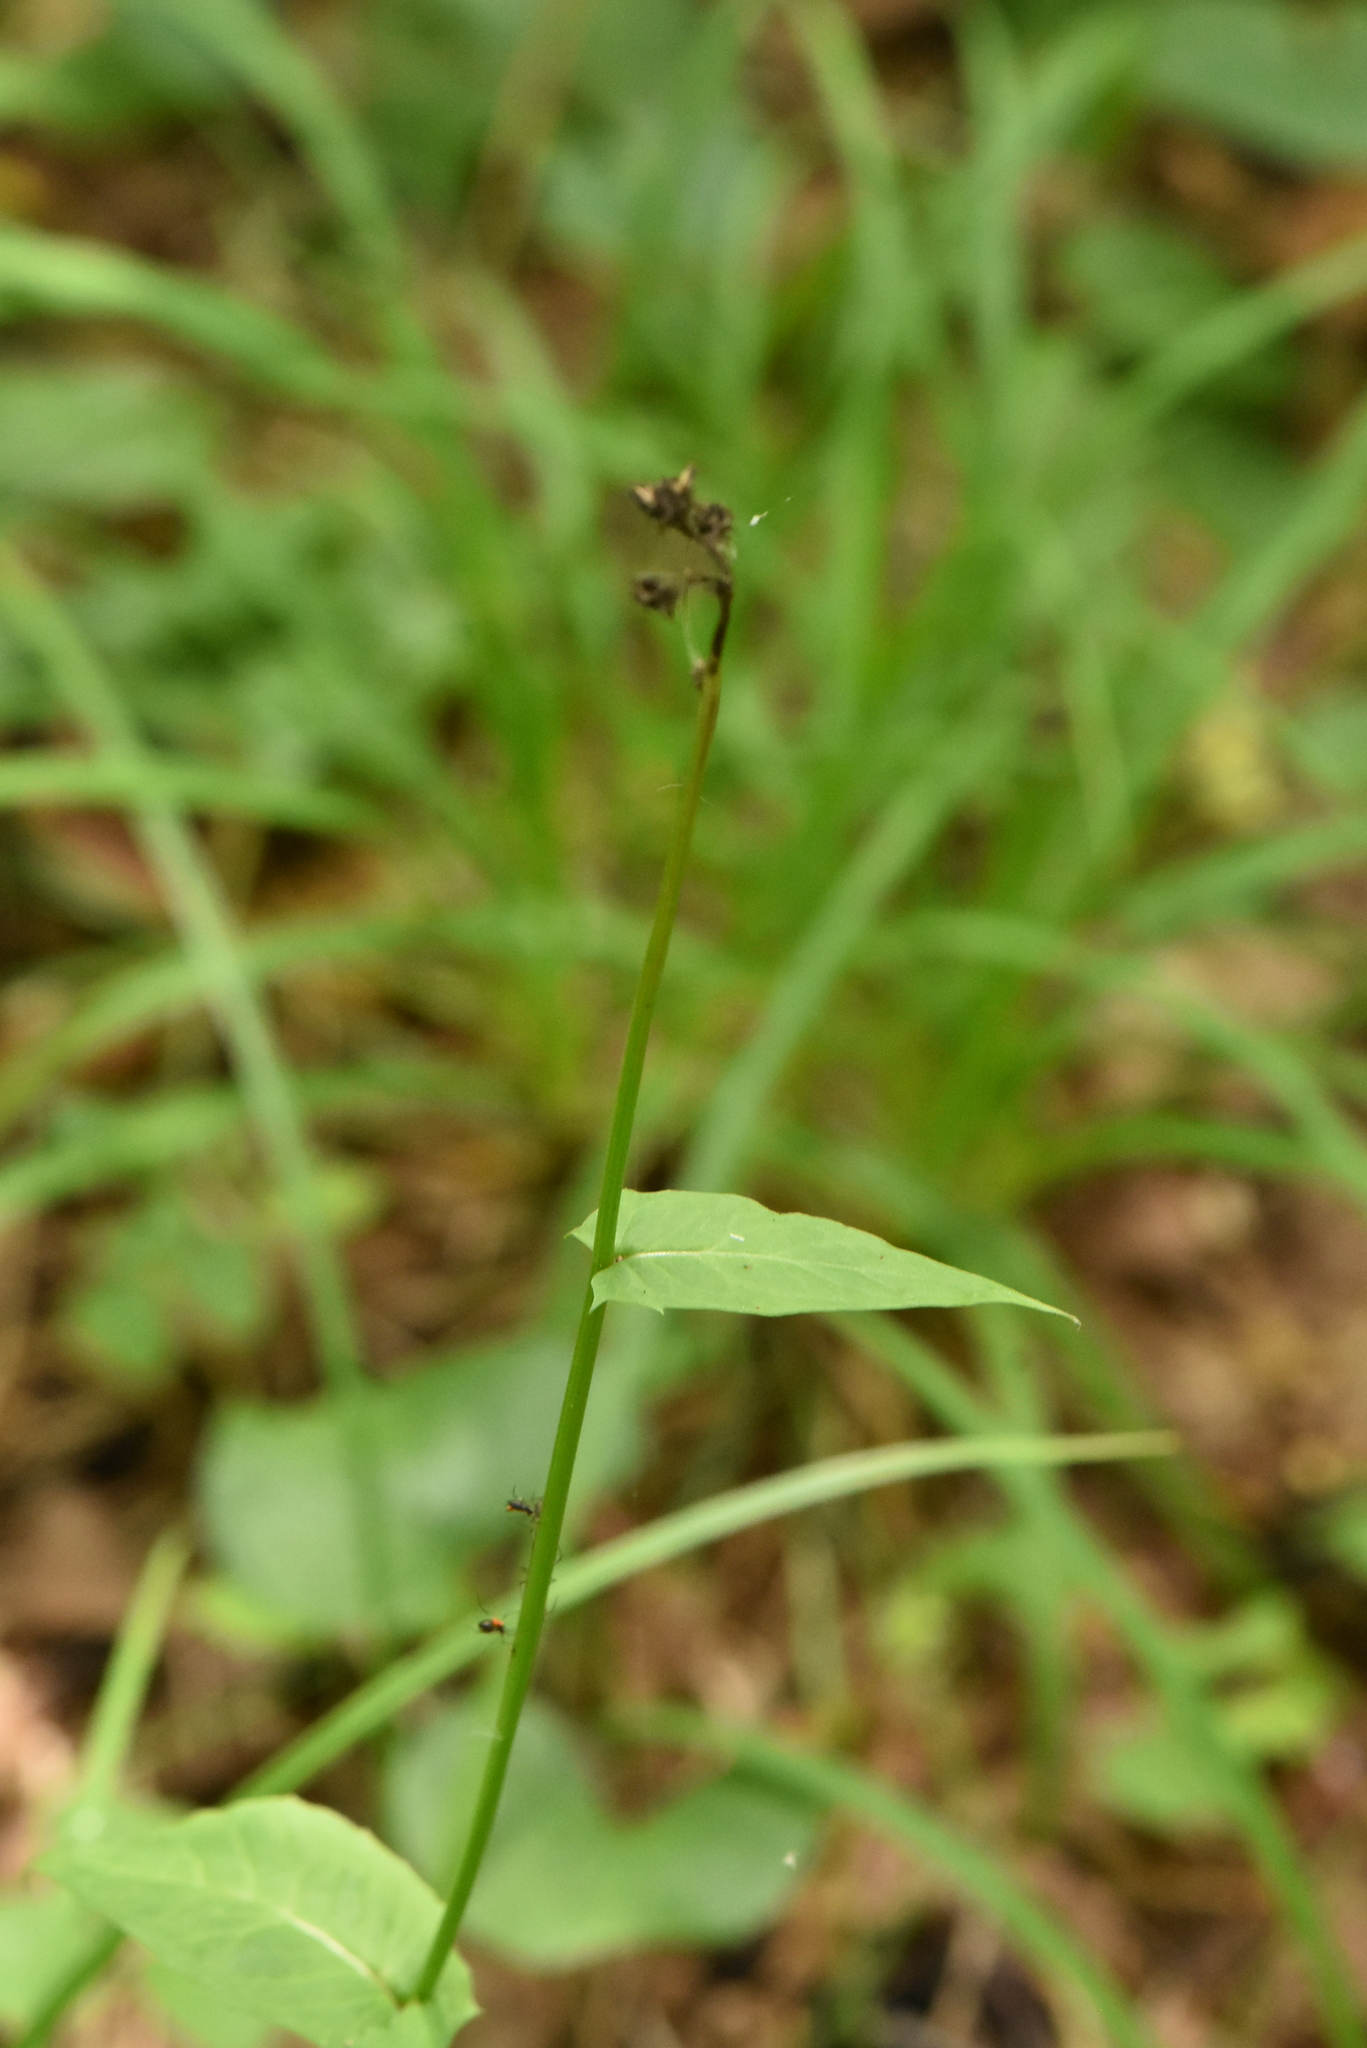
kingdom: Plantae
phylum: Tracheophyta
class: Magnoliopsida
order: Asterales
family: Asteraceae
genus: Crepis
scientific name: Crepis paludosa
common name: Marsh hawk's-beard
